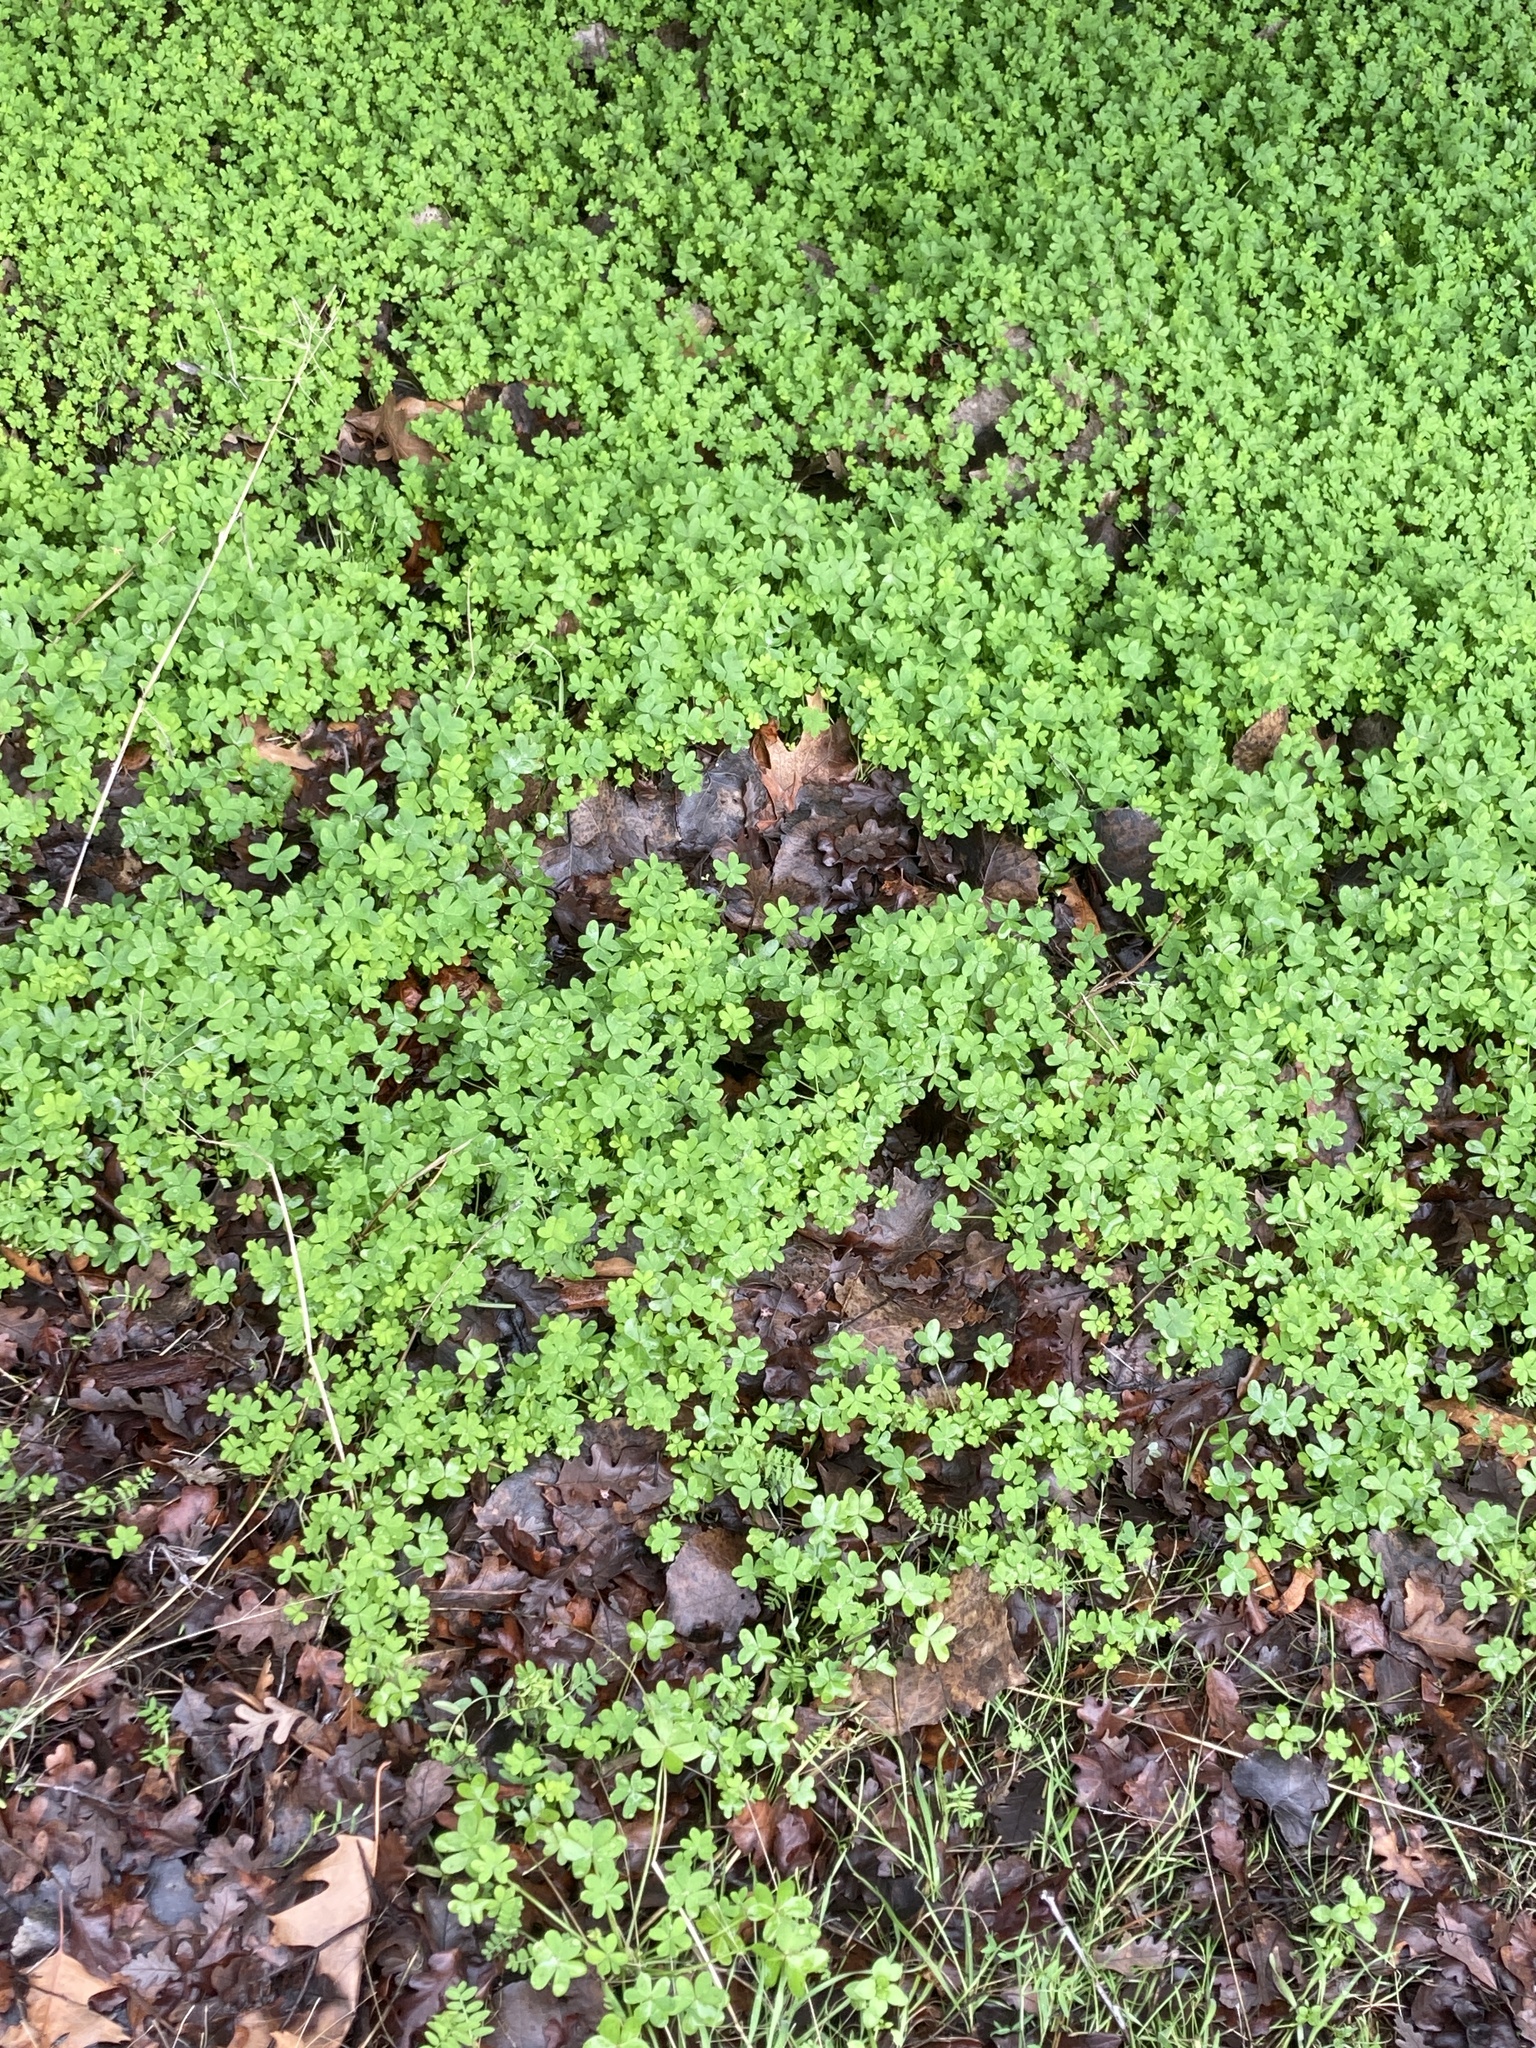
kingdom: Plantae
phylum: Tracheophyta
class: Magnoliopsida
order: Oxalidales
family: Oxalidaceae
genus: Oxalis
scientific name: Oxalis pes-caprae
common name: Bermuda-buttercup
